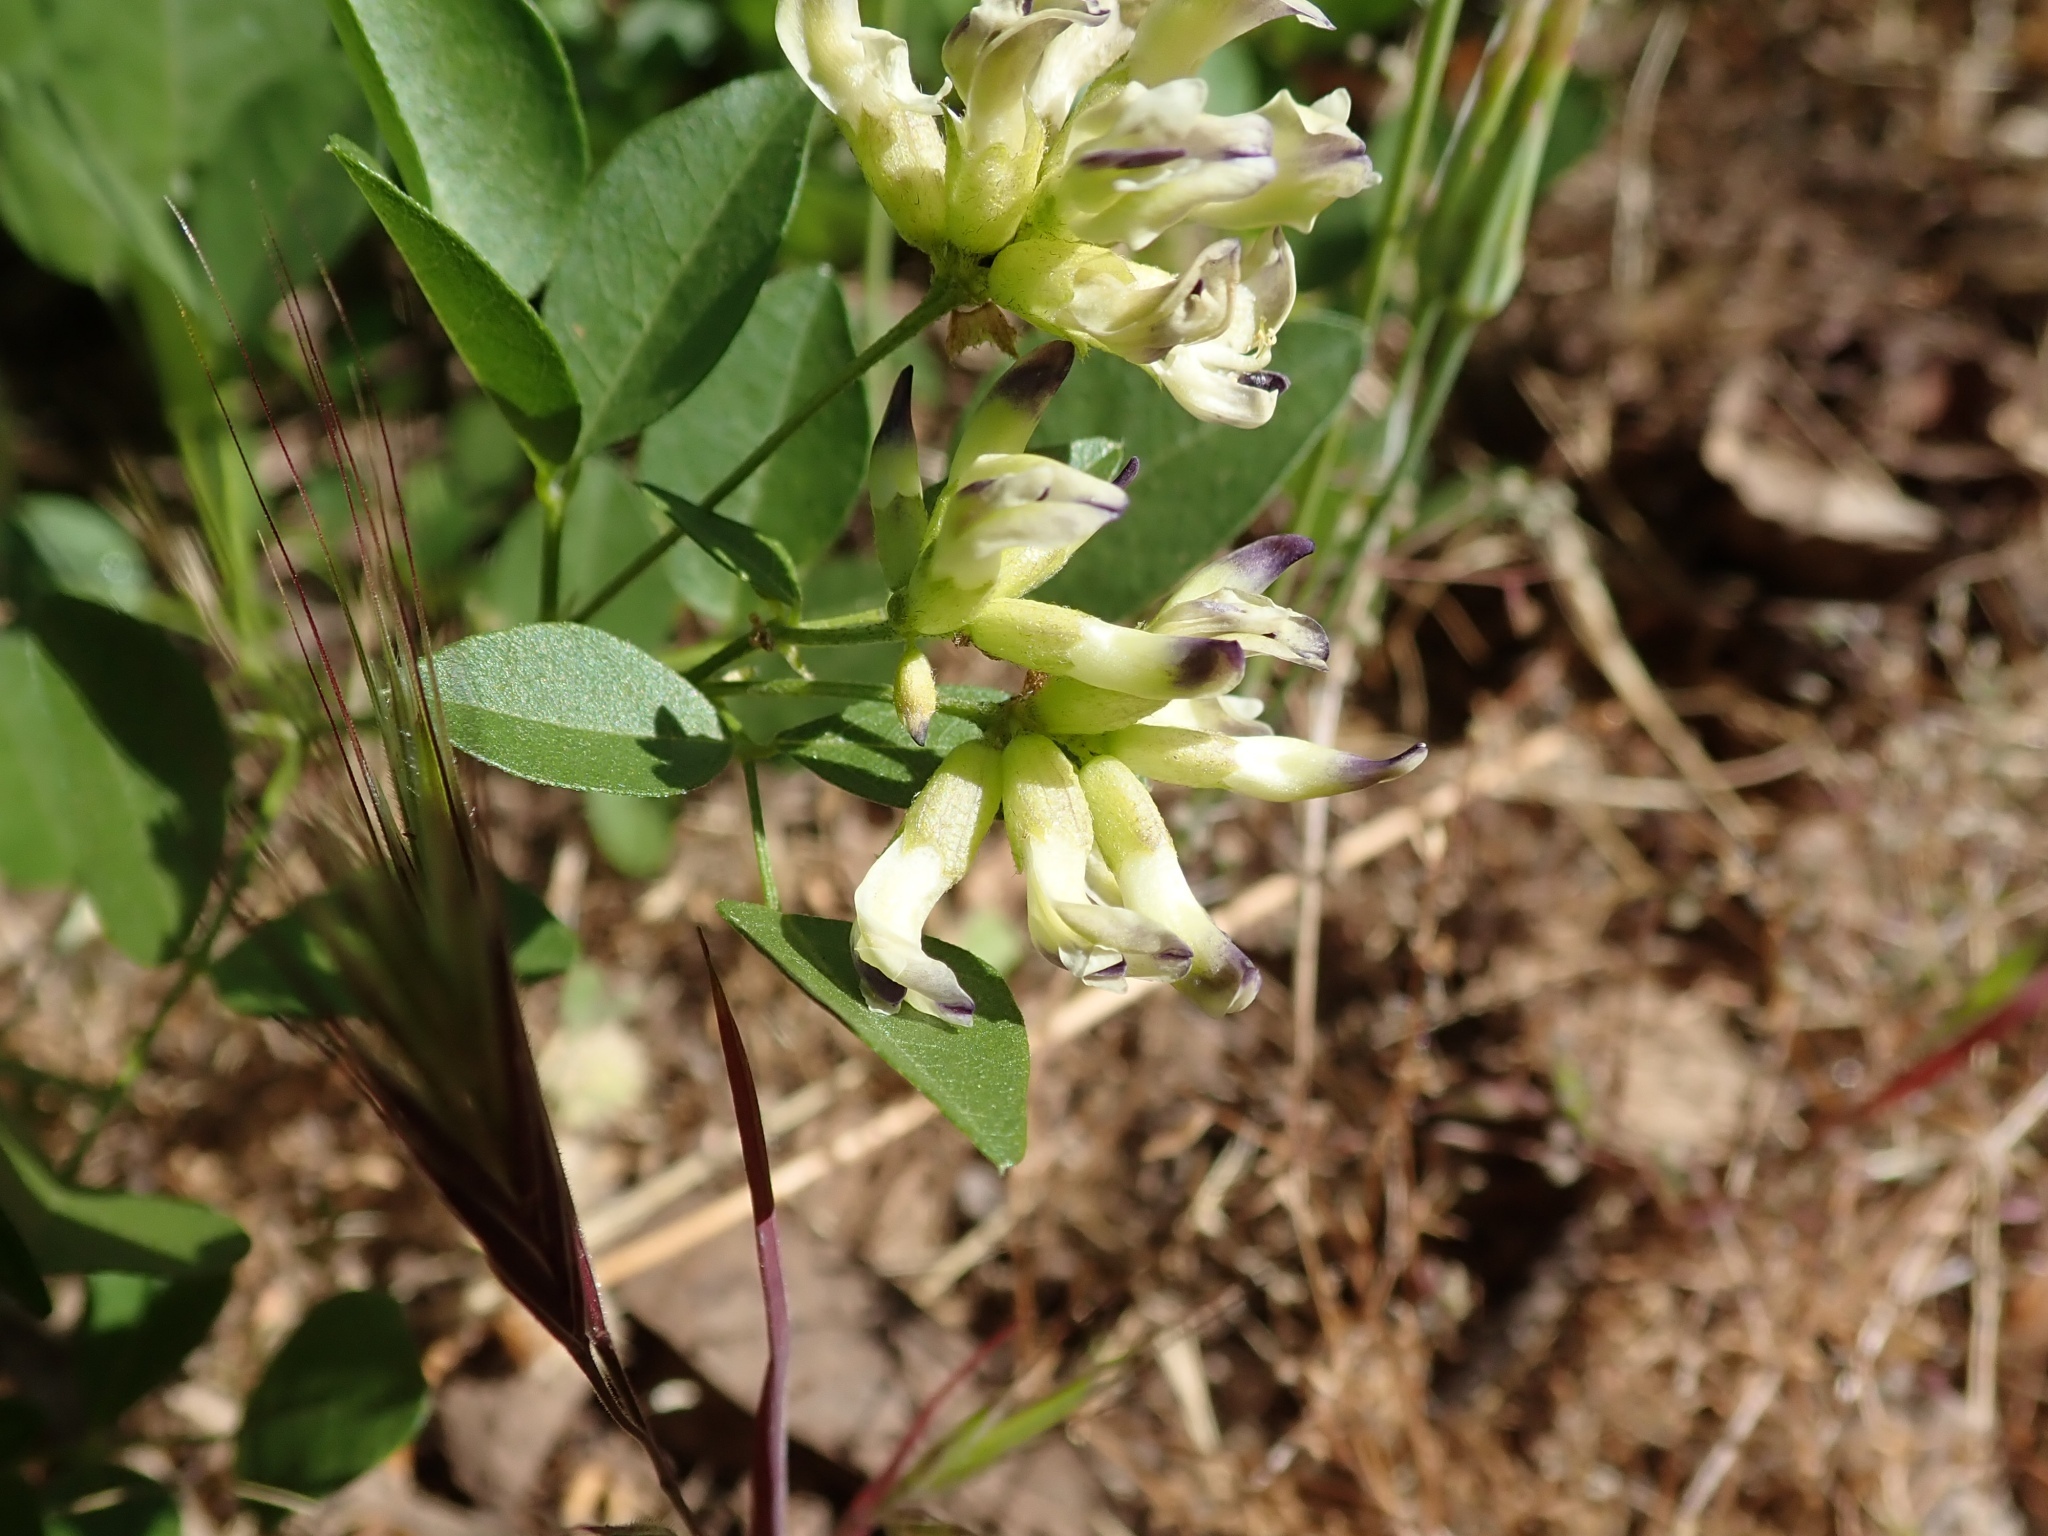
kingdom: Plantae
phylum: Tracheophyta
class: Magnoliopsida
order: Fabales
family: Fabaceae
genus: Rupertia
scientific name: Rupertia physodes
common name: California-tea
